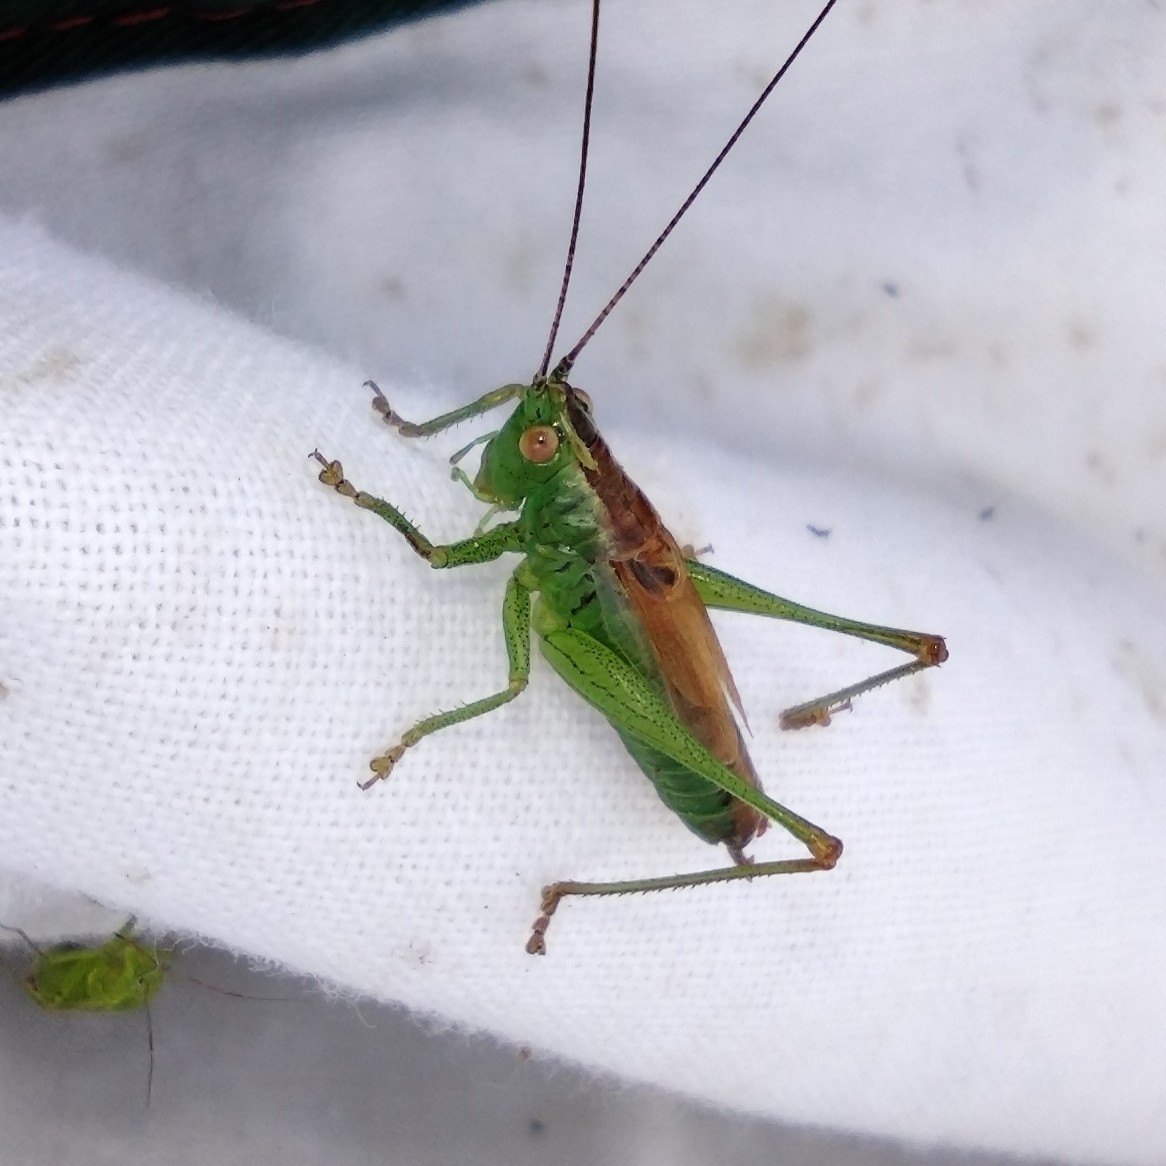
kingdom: Animalia
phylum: Arthropoda
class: Insecta
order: Orthoptera
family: Tettigoniidae
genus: Conocephalus
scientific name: Conocephalus dorsalis
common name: Short-winged conehead
